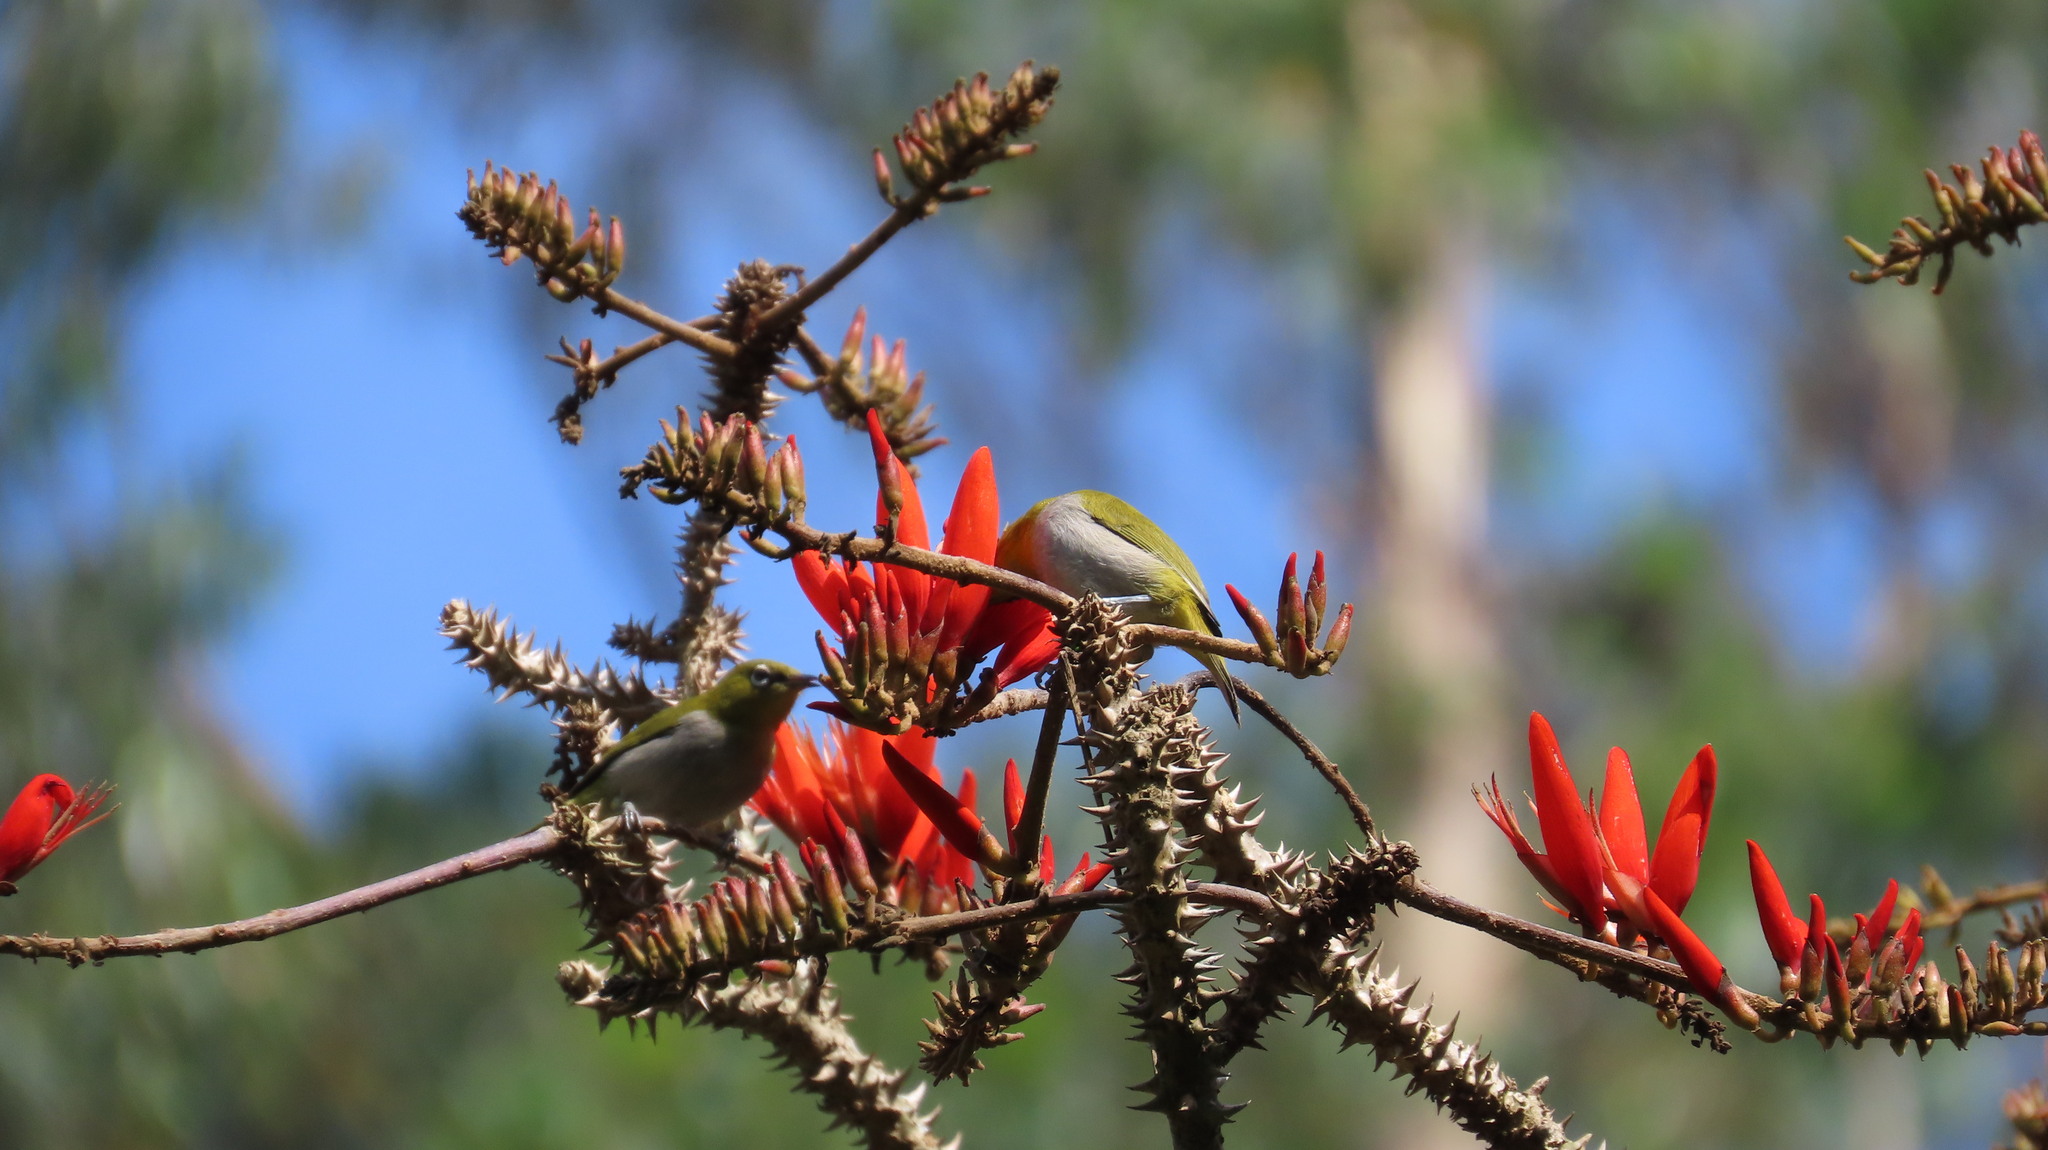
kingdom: Animalia
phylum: Chordata
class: Aves
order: Passeriformes
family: Zosteropidae
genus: Zosterops
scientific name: Zosterops palpebrosus
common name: Oriental white-eye
